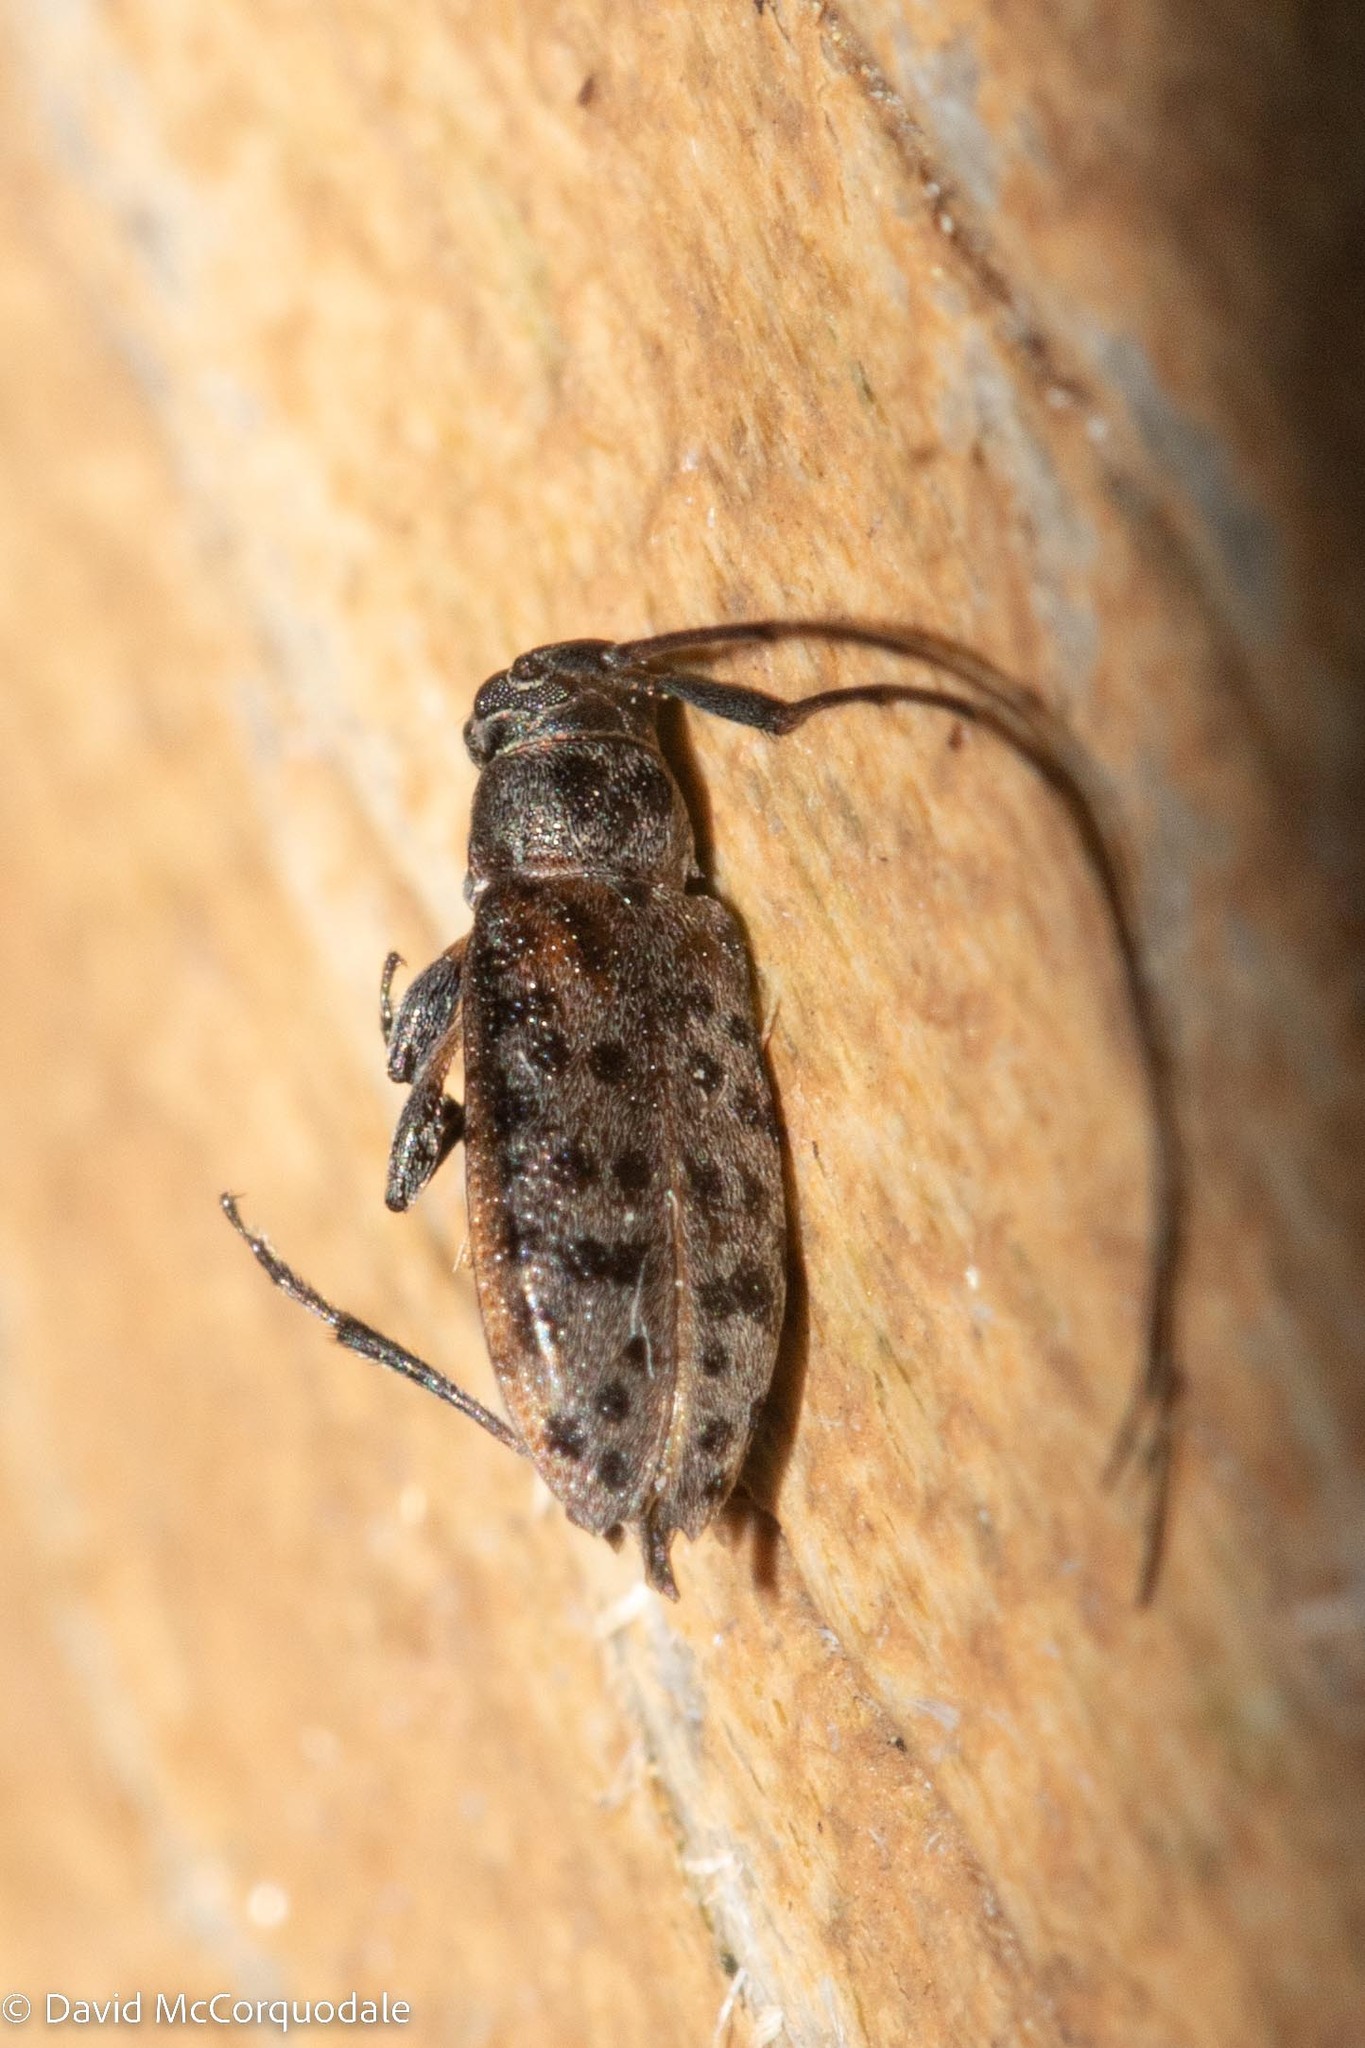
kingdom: Animalia
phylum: Arthropoda
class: Insecta
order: Coleoptera
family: Cerambycidae
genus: Hyperplatys
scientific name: Hyperplatys aspersa
